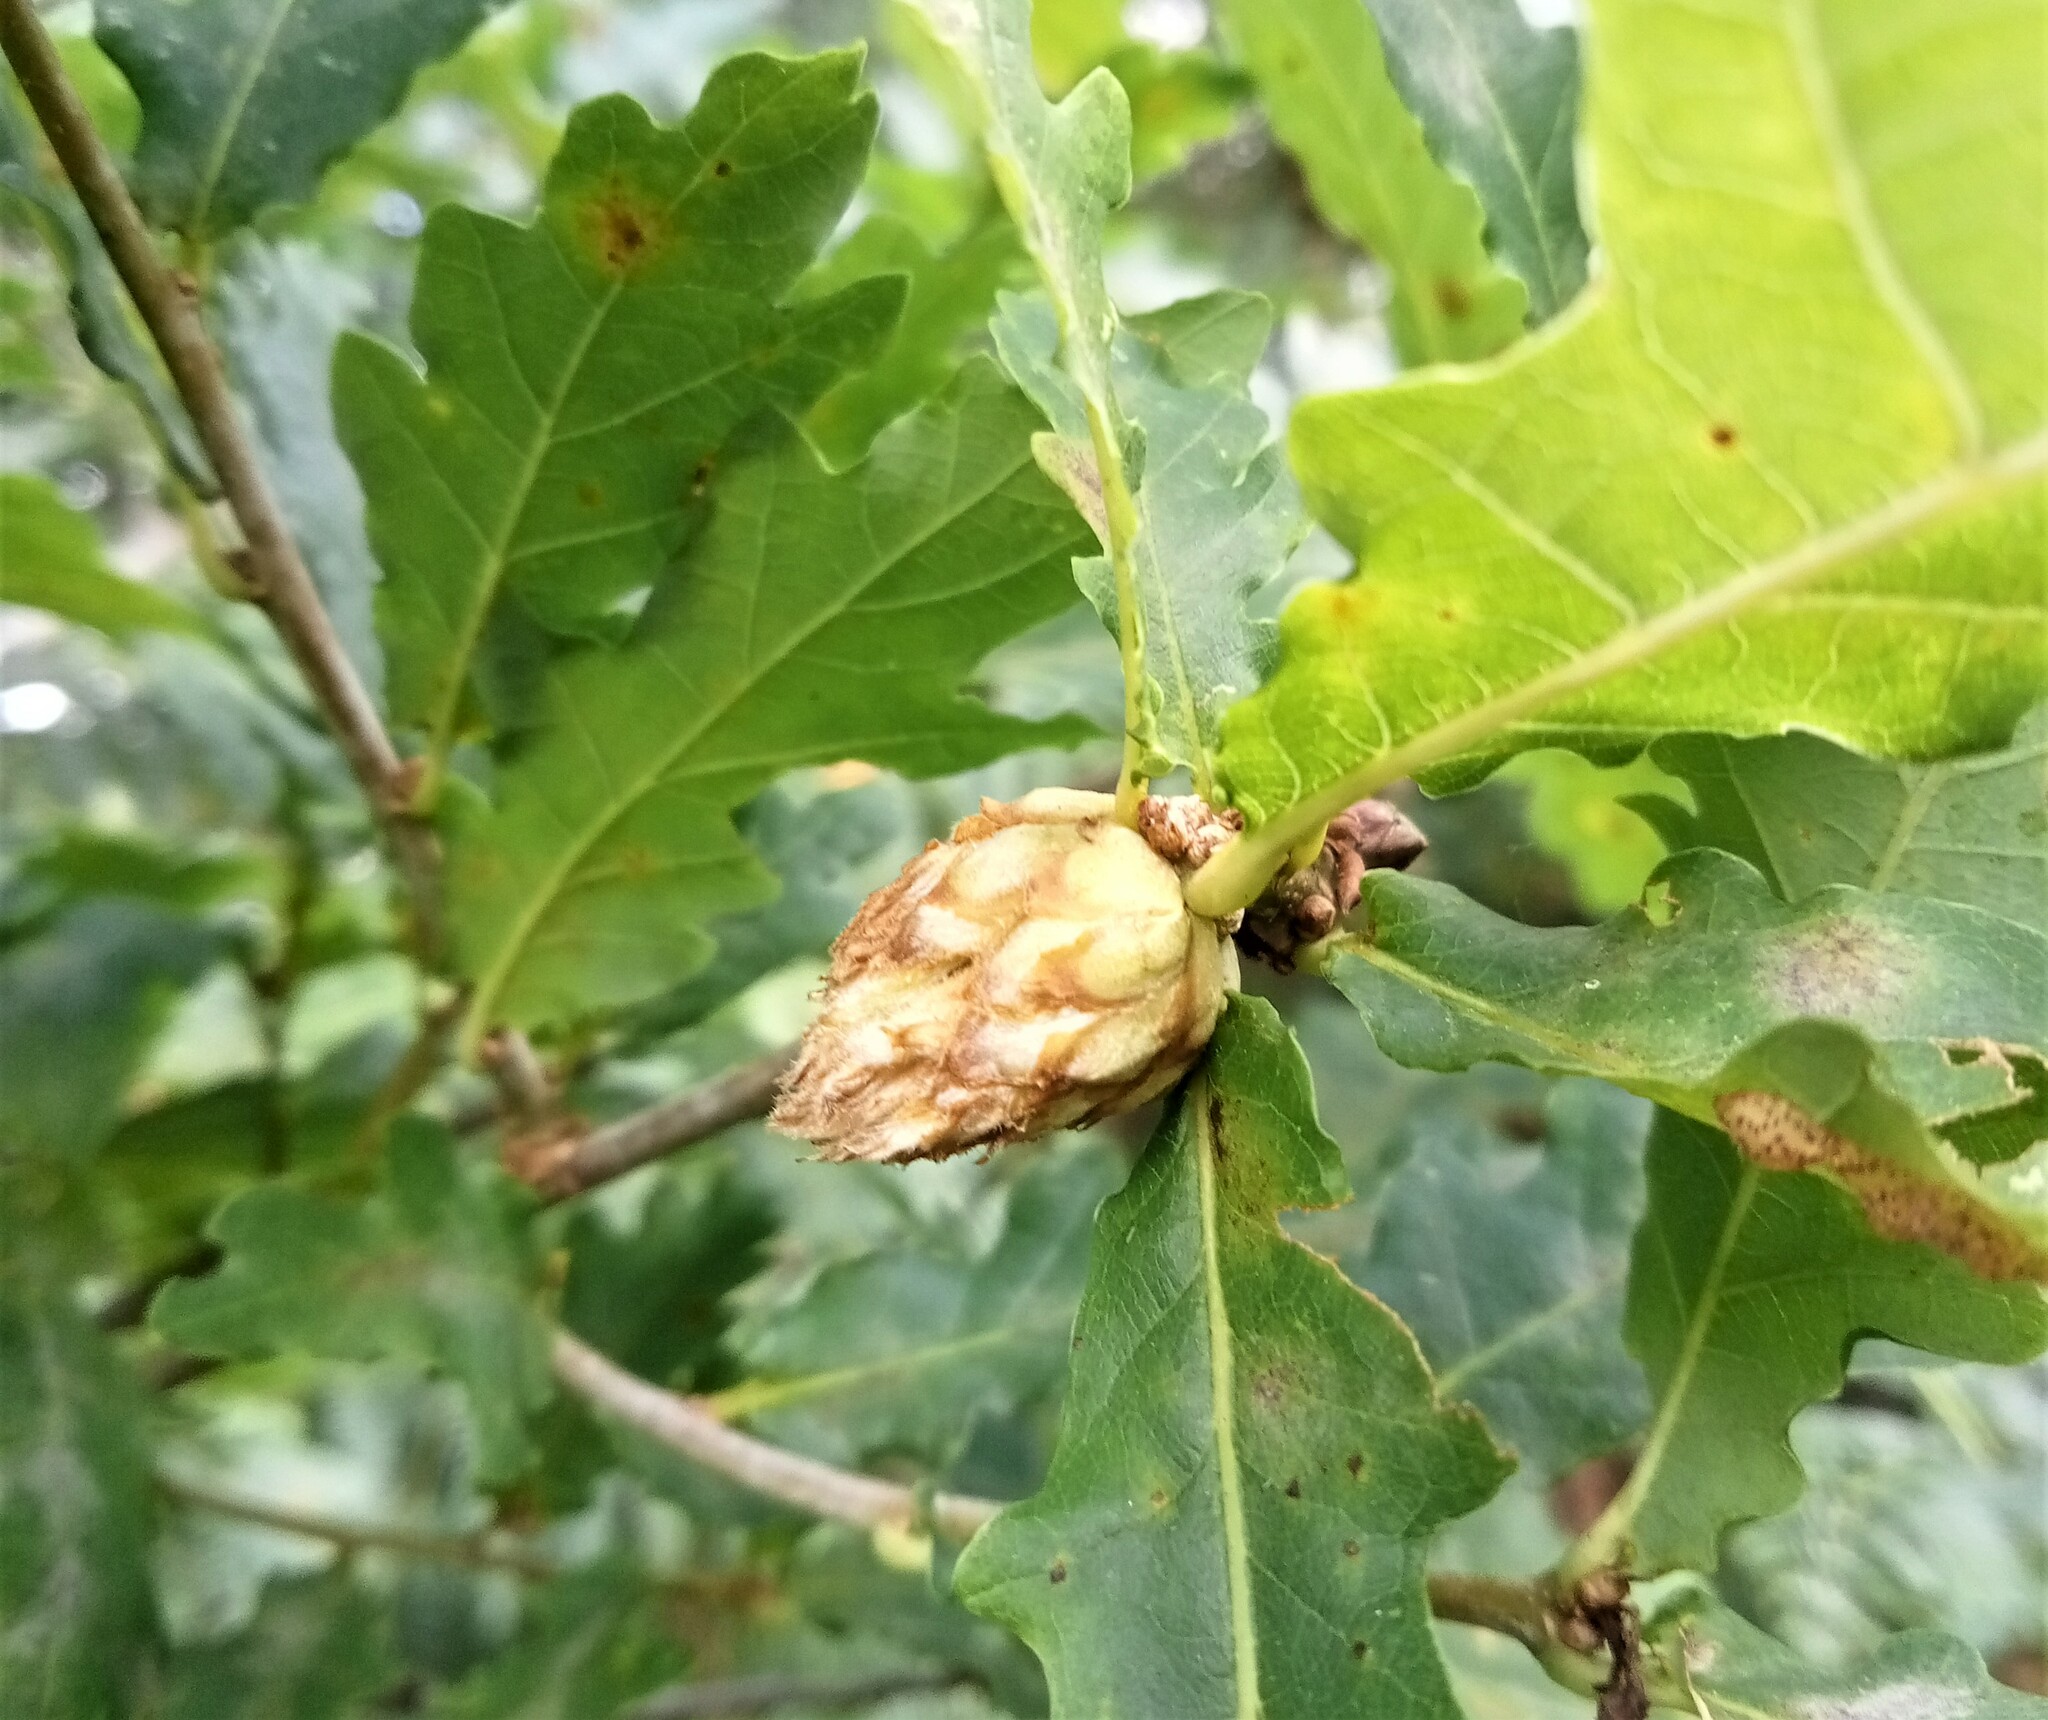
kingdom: Animalia
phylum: Arthropoda
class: Insecta
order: Hymenoptera
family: Cynipidae
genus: Andricus
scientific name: Andricus foecundatrix
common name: Artichoke gall
